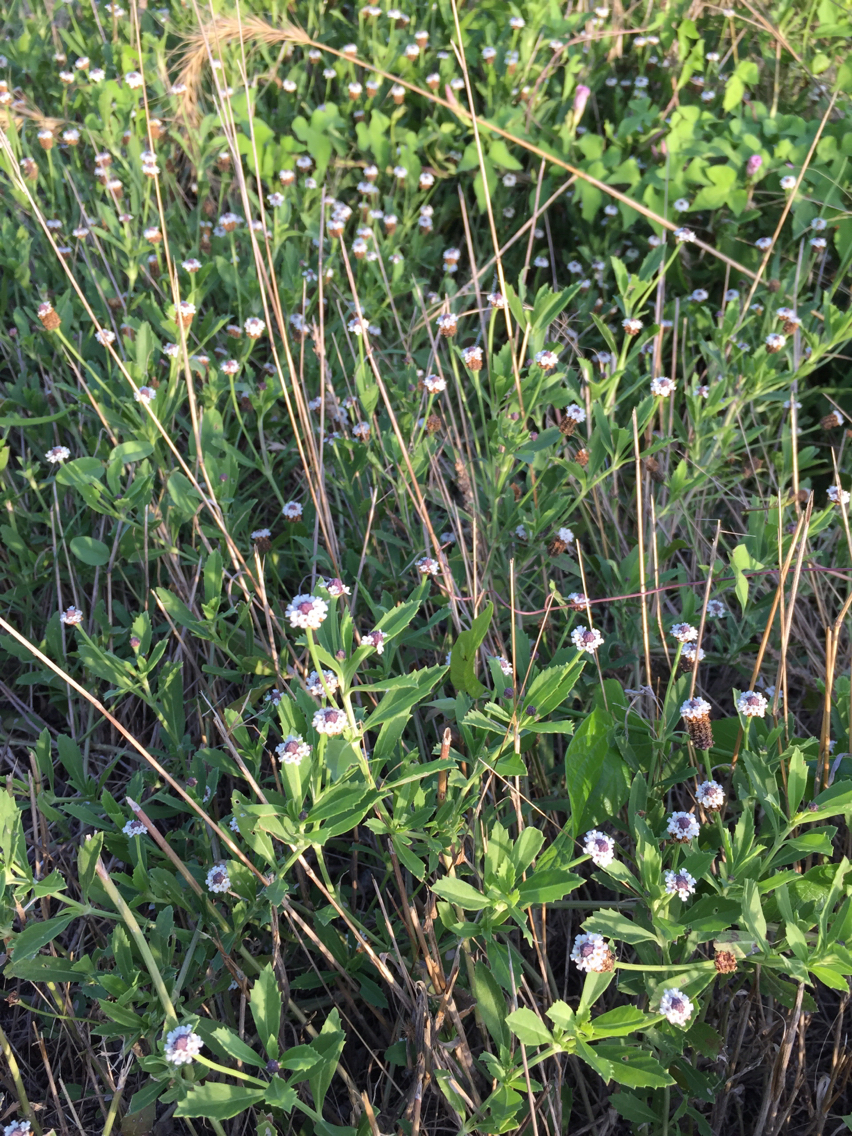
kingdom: Plantae
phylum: Tracheophyta
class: Magnoliopsida
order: Lamiales
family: Verbenaceae
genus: Phyla
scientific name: Phyla nodiflora
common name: Frogfruit
